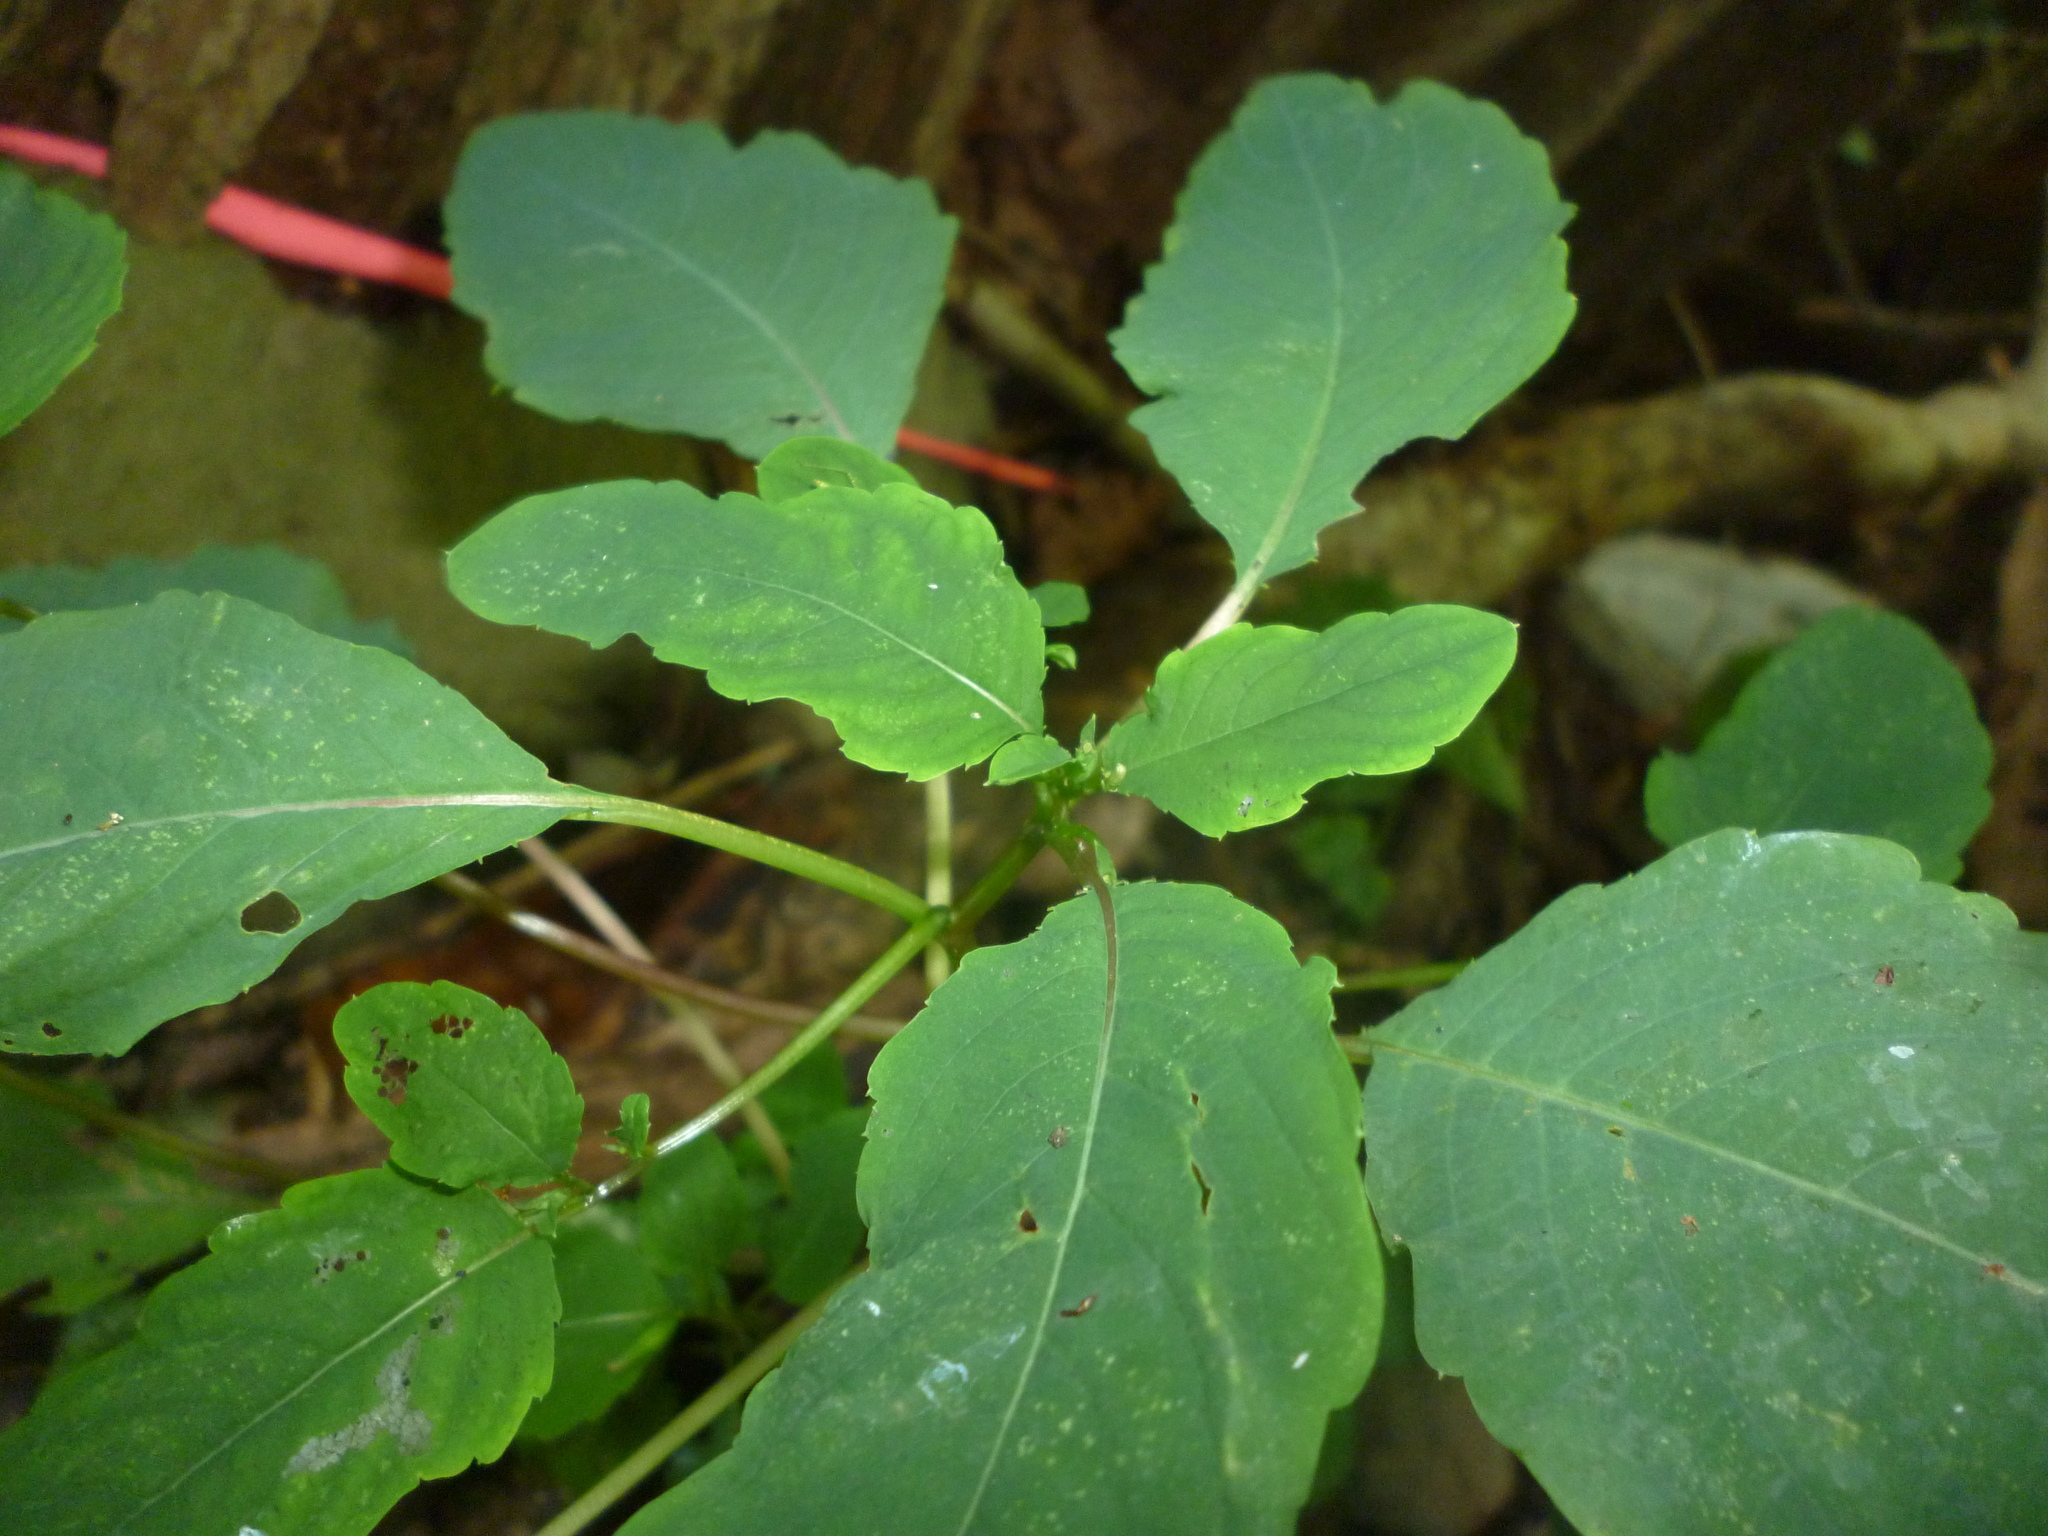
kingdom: Plantae
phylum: Tracheophyta
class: Magnoliopsida
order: Ericales
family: Balsaminaceae
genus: Impatiens
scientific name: Impatiens
